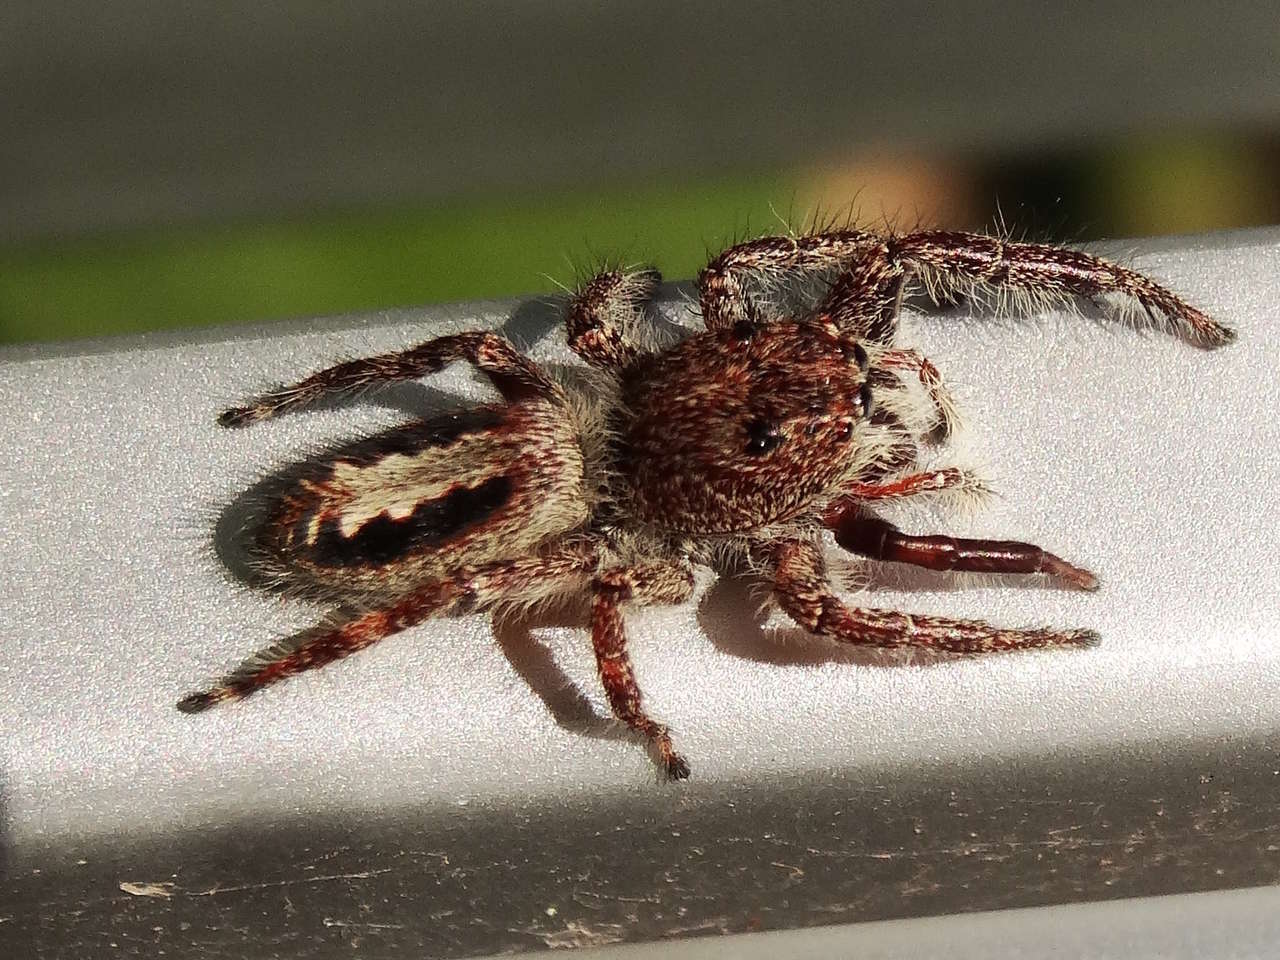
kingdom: Animalia
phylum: Arthropoda
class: Arachnida
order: Araneae
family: Salticidae
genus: Sandalodes
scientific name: Sandalodes superbus
